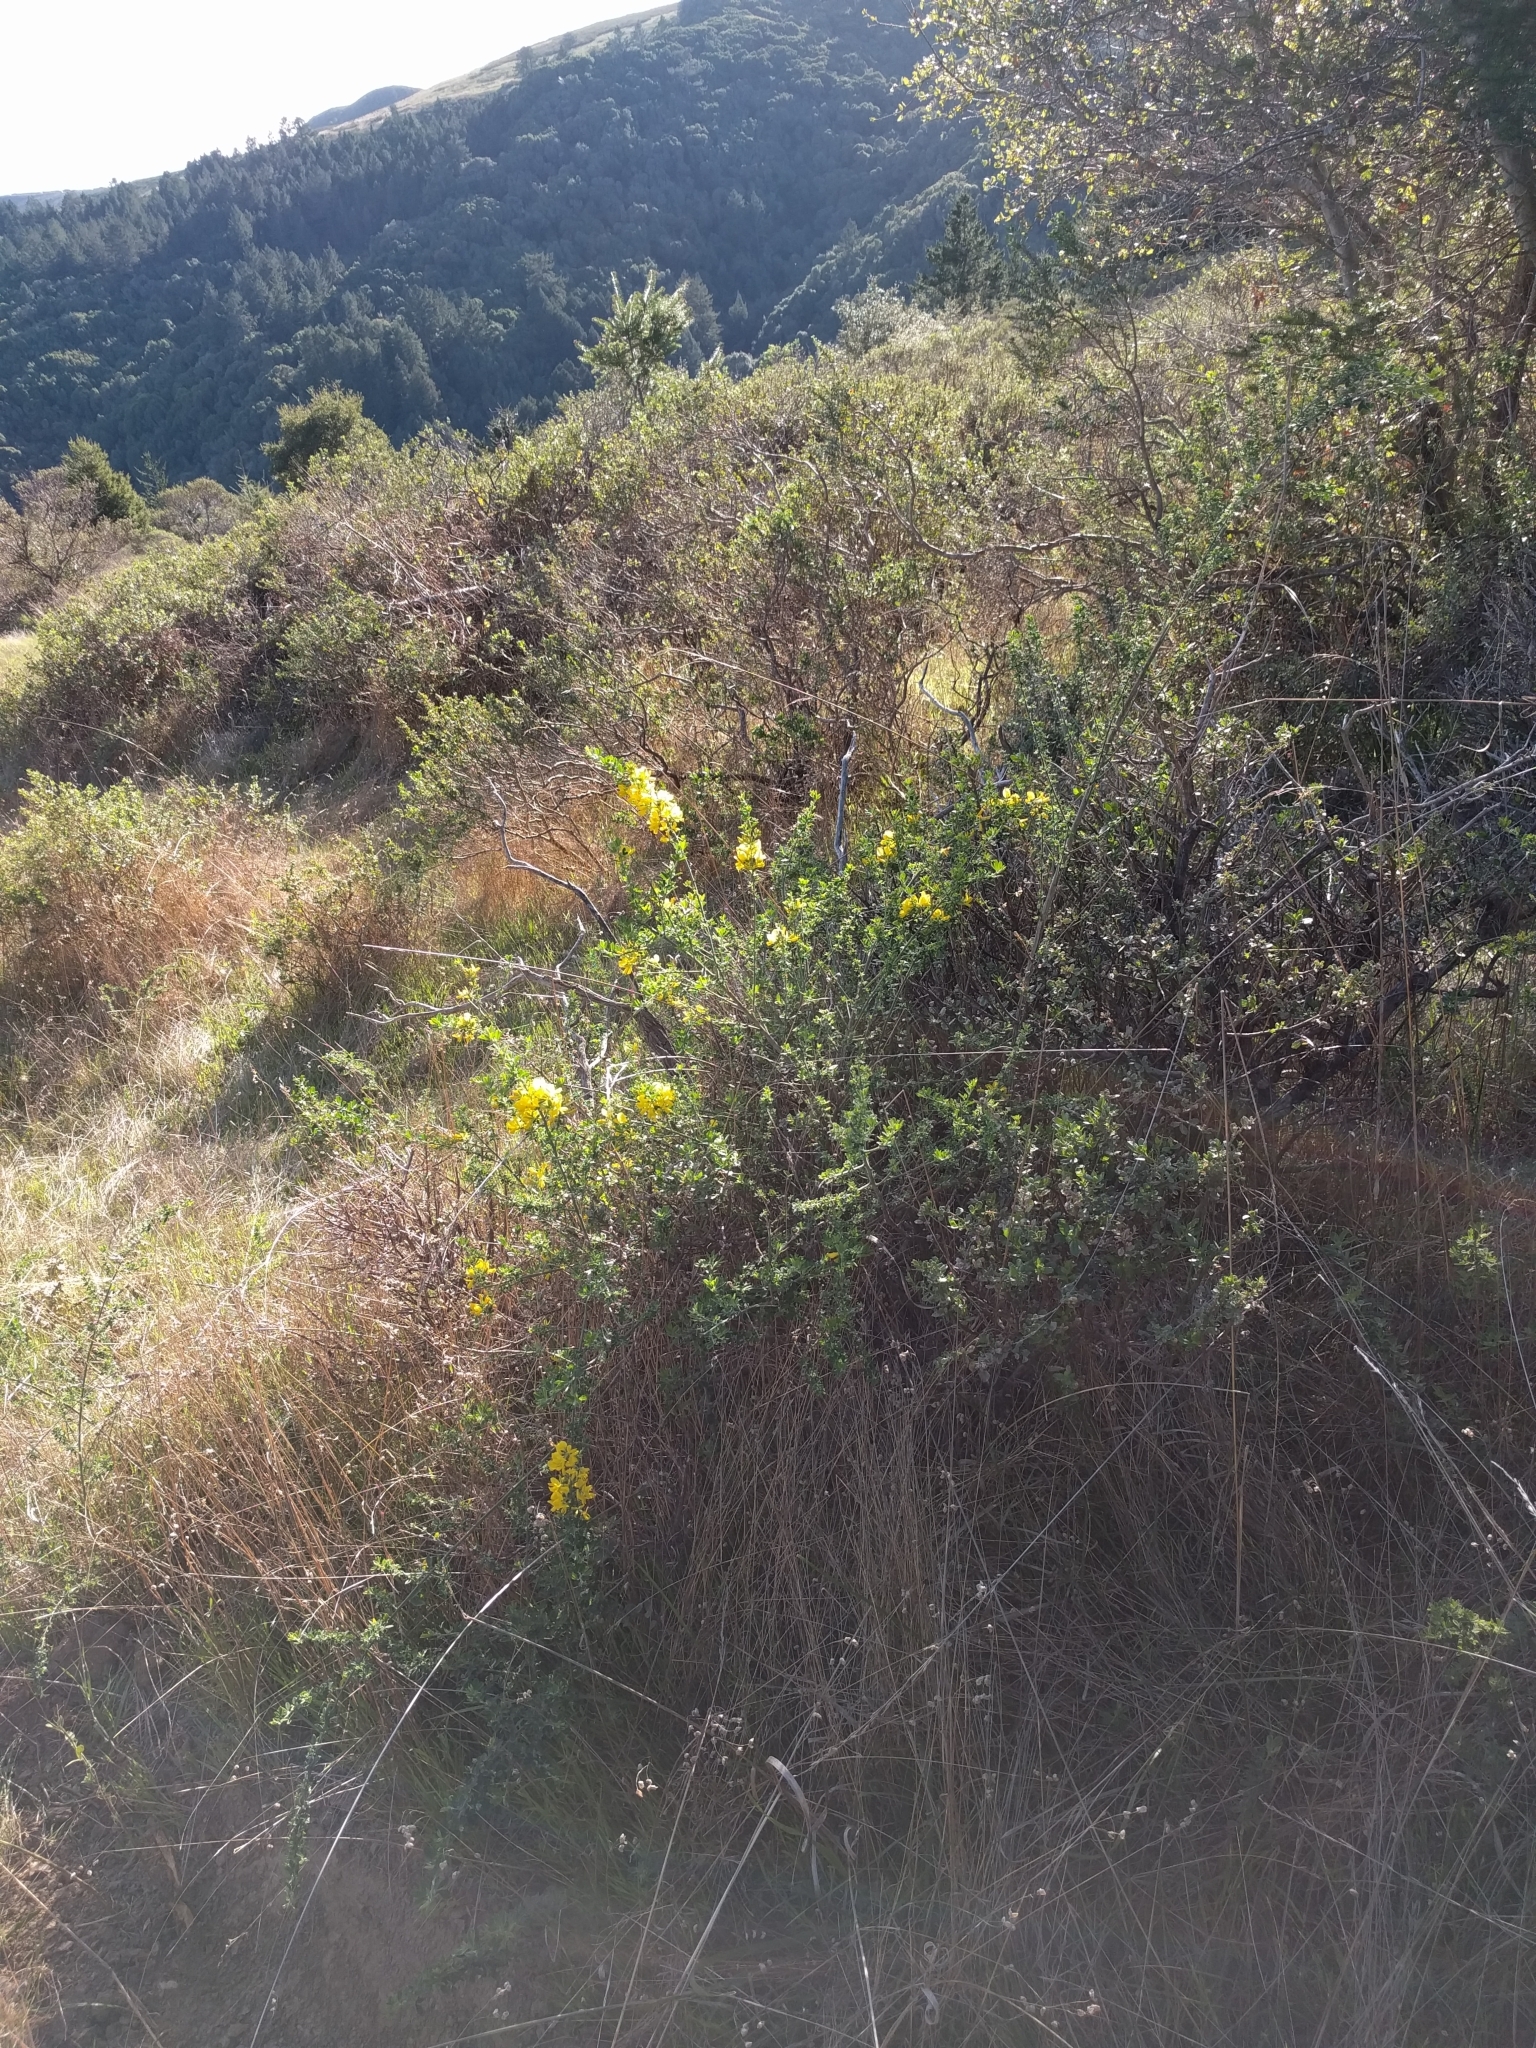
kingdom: Plantae
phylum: Tracheophyta
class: Magnoliopsida
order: Fabales
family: Fabaceae
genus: Genista
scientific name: Genista monspessulana
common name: Montpellier broom
